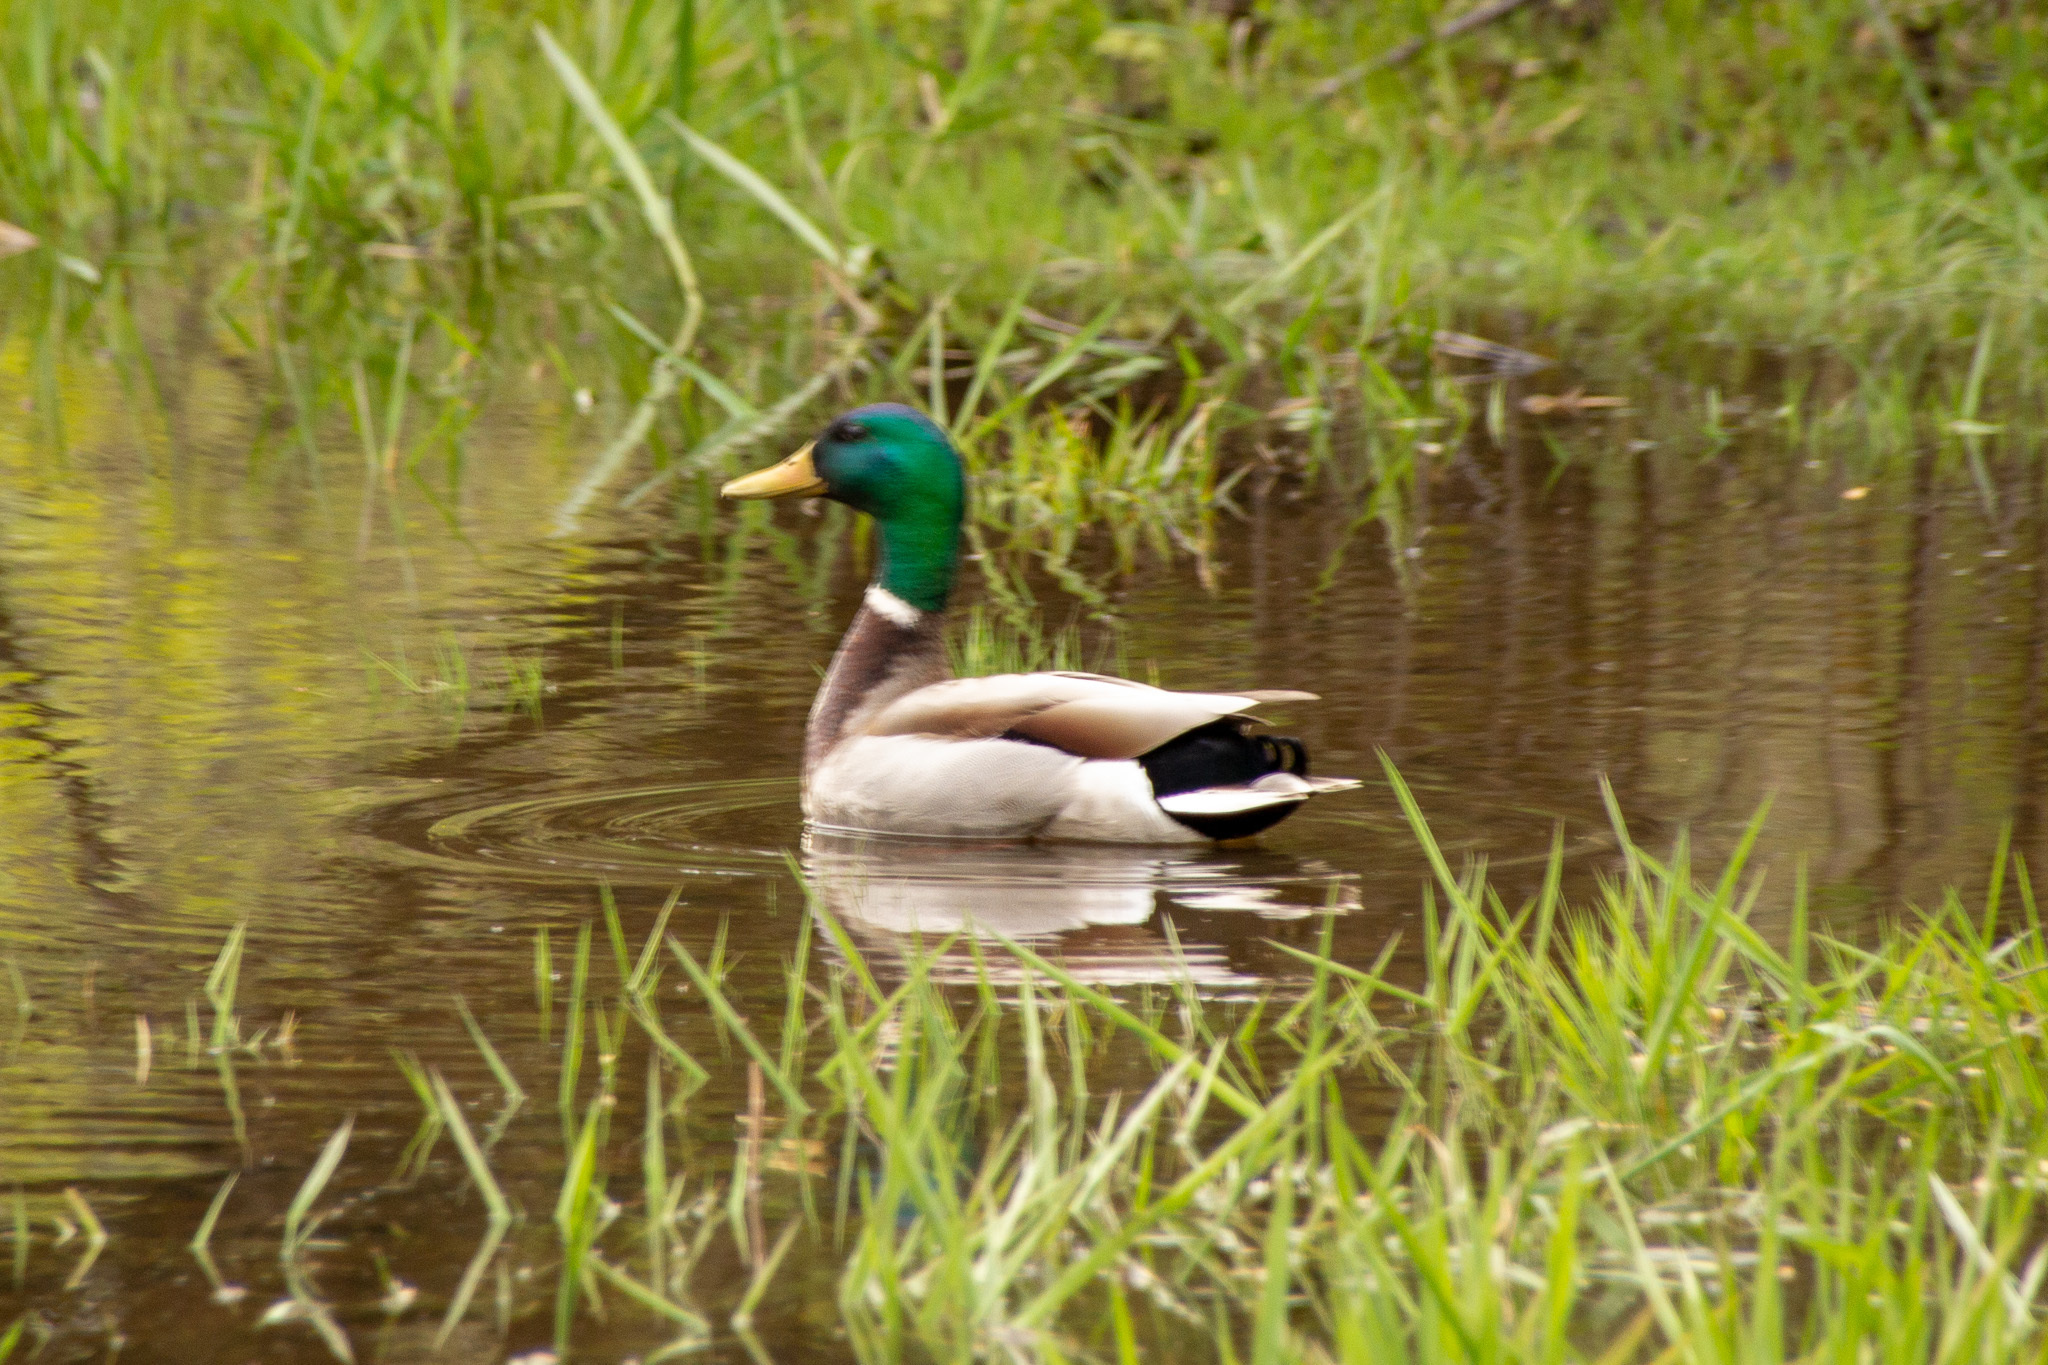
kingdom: Animalia
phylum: Chordata
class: Aves
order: Anseriformes
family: Anatidae
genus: Anas
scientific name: Anas platyrhynchos
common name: Mallard
